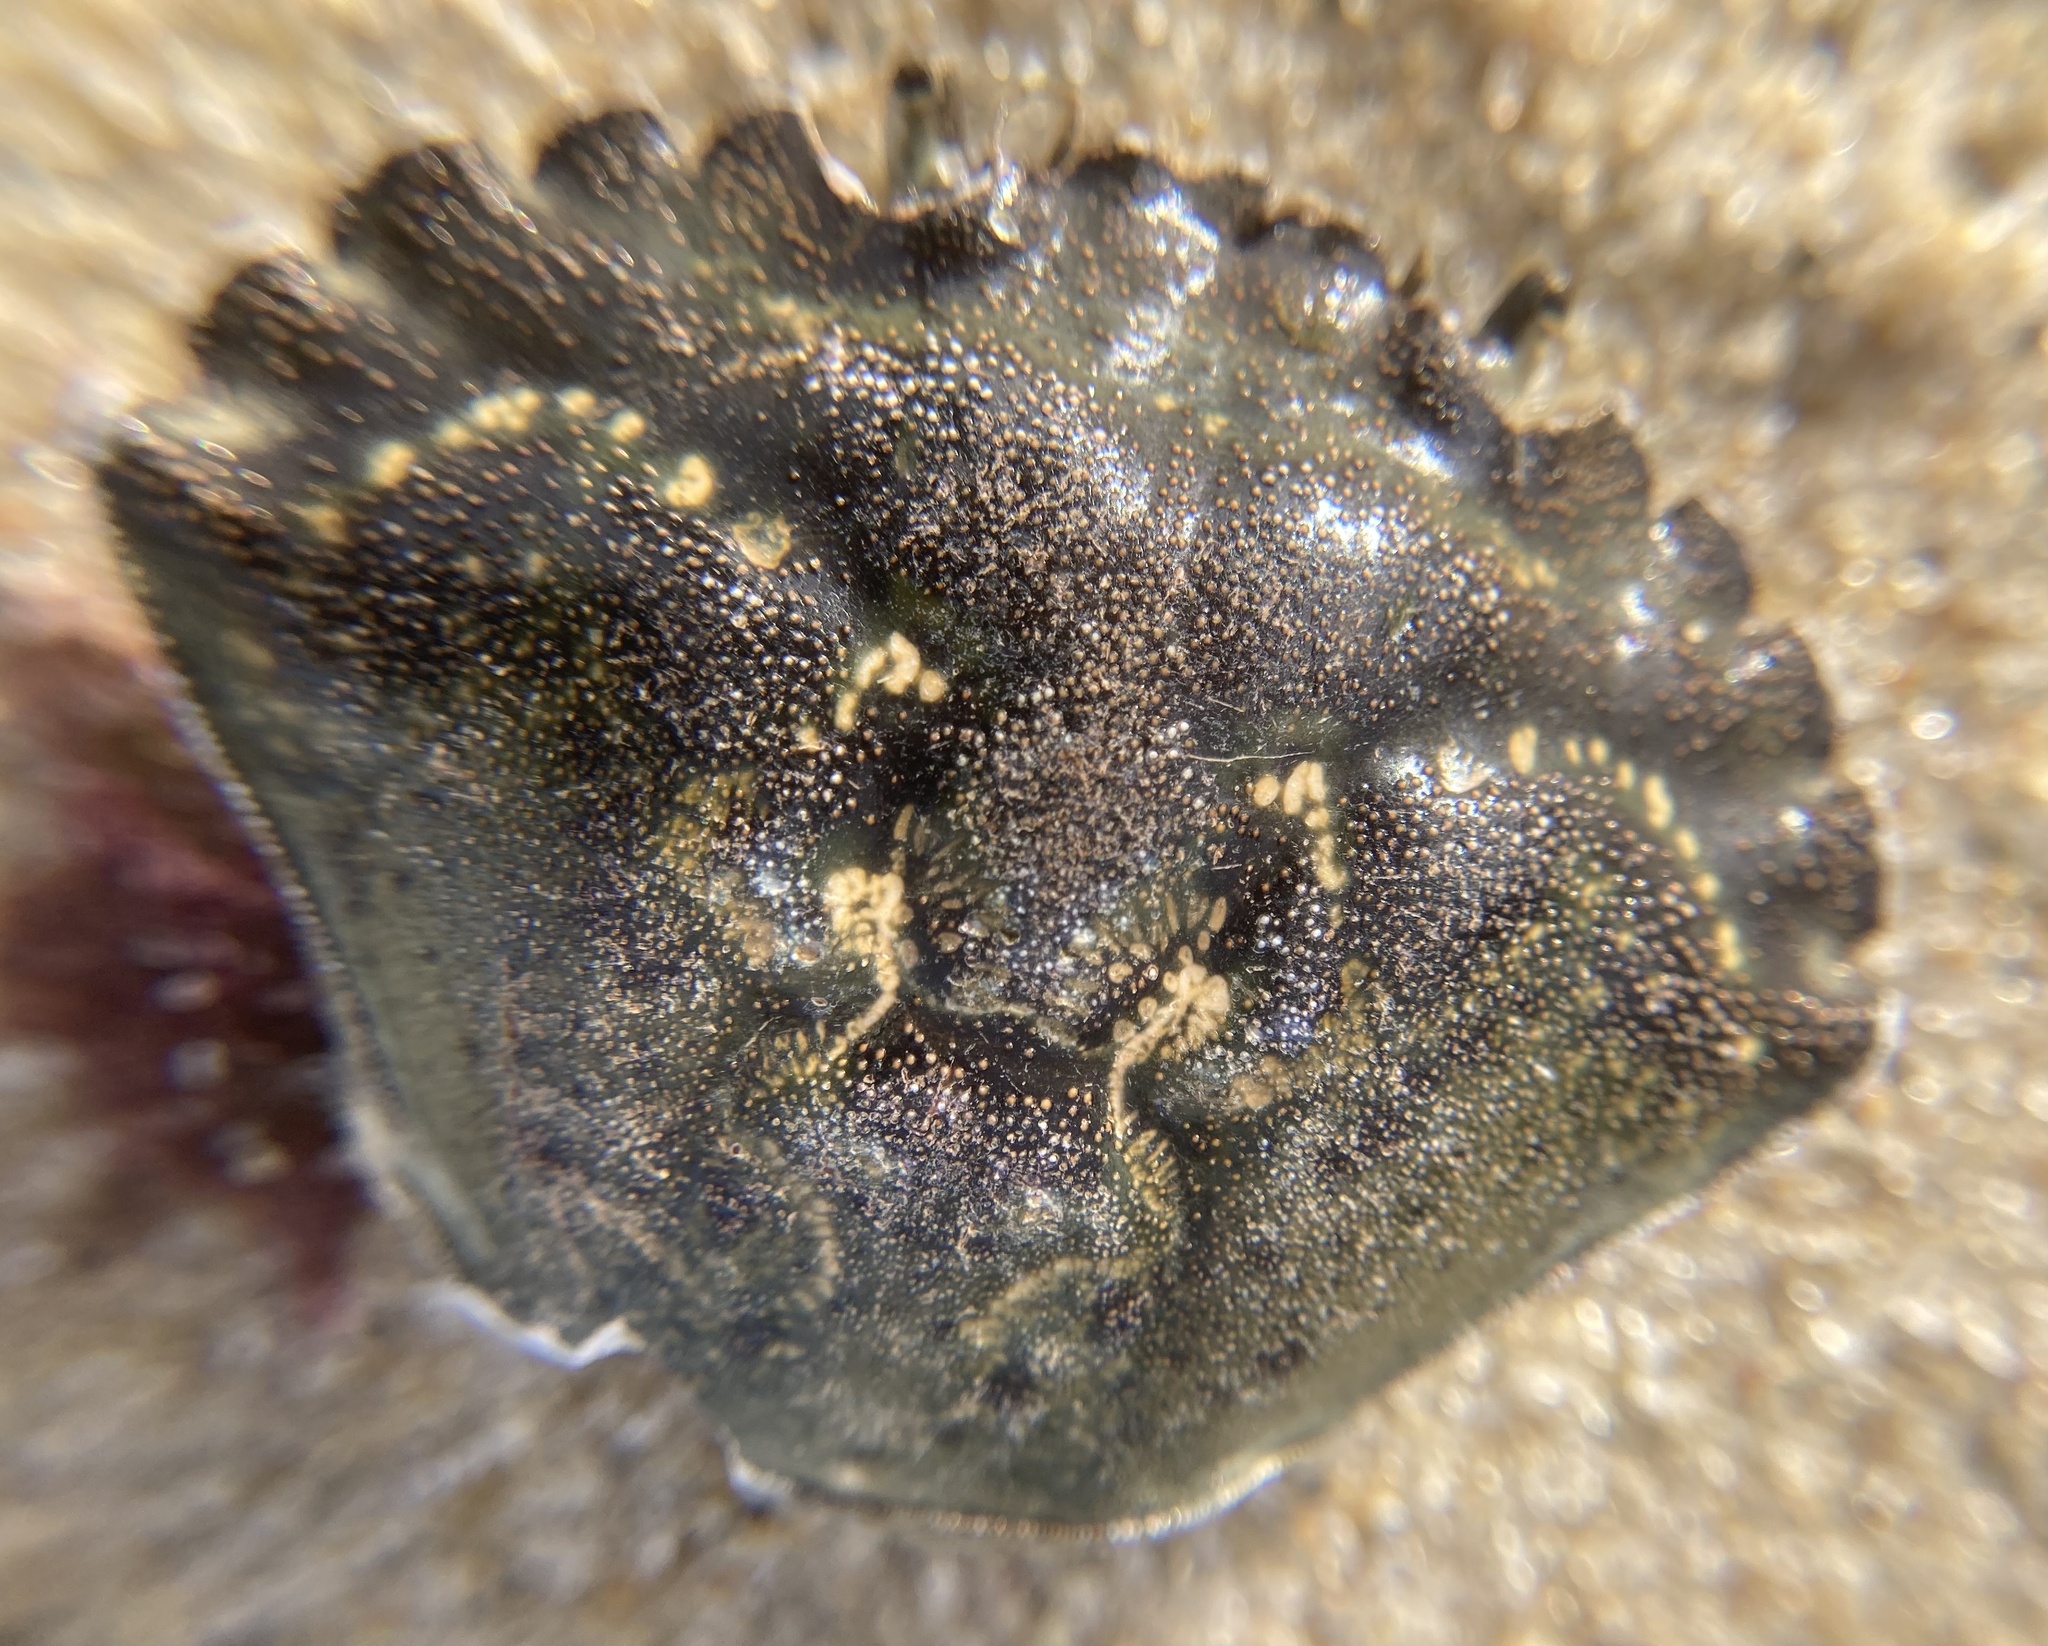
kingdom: Animalia
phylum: Arthropoda
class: Malacostraca
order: Decapoda
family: Carcinidae
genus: Carcinus
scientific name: Carcinus maenas
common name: European green crab
